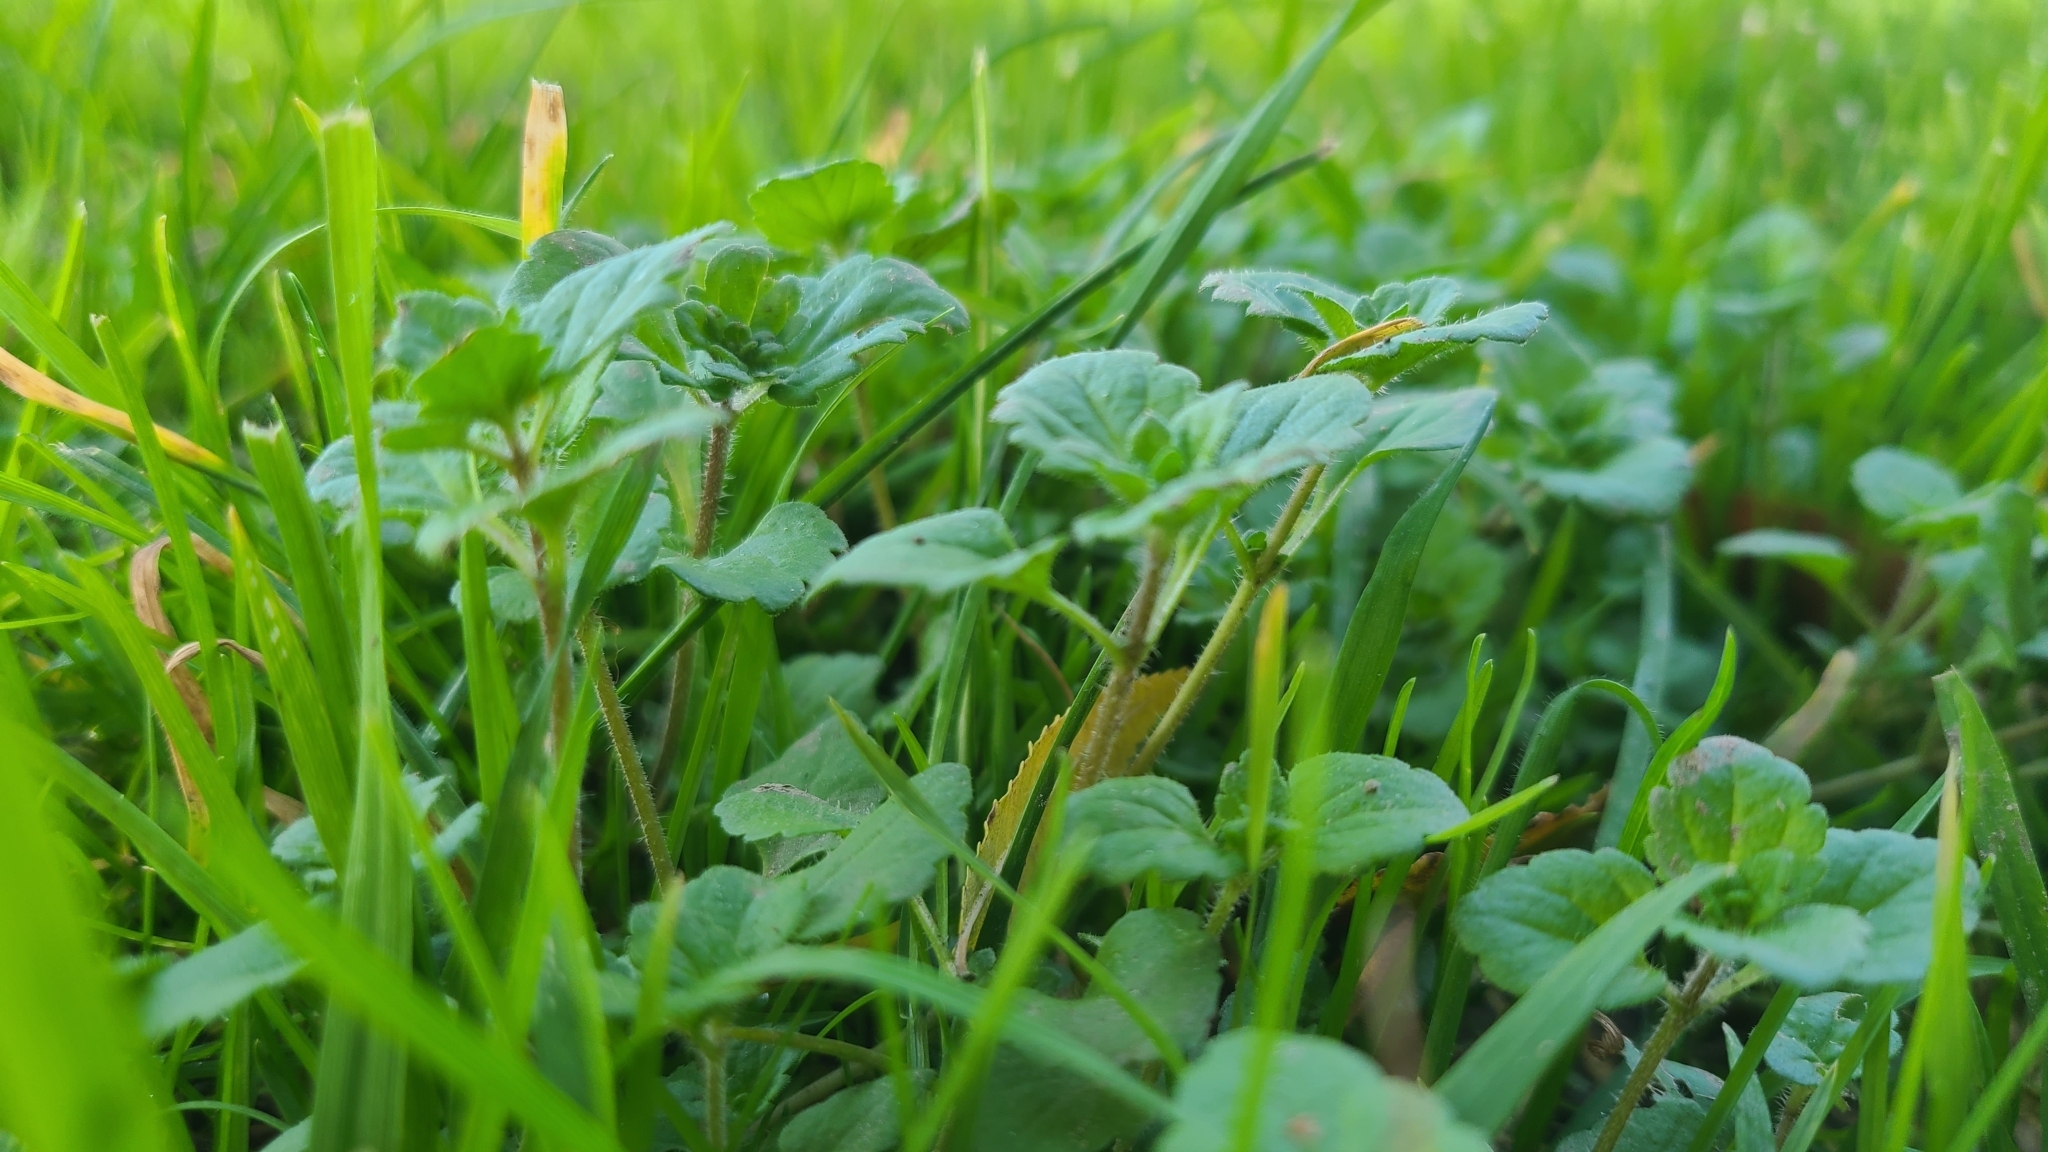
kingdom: Plantae
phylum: Tracheophyta
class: Magnoliopsida
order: Lamiales
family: Plantaginaceae
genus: Veronica
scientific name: Veronica persica
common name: Common field-speedwell
